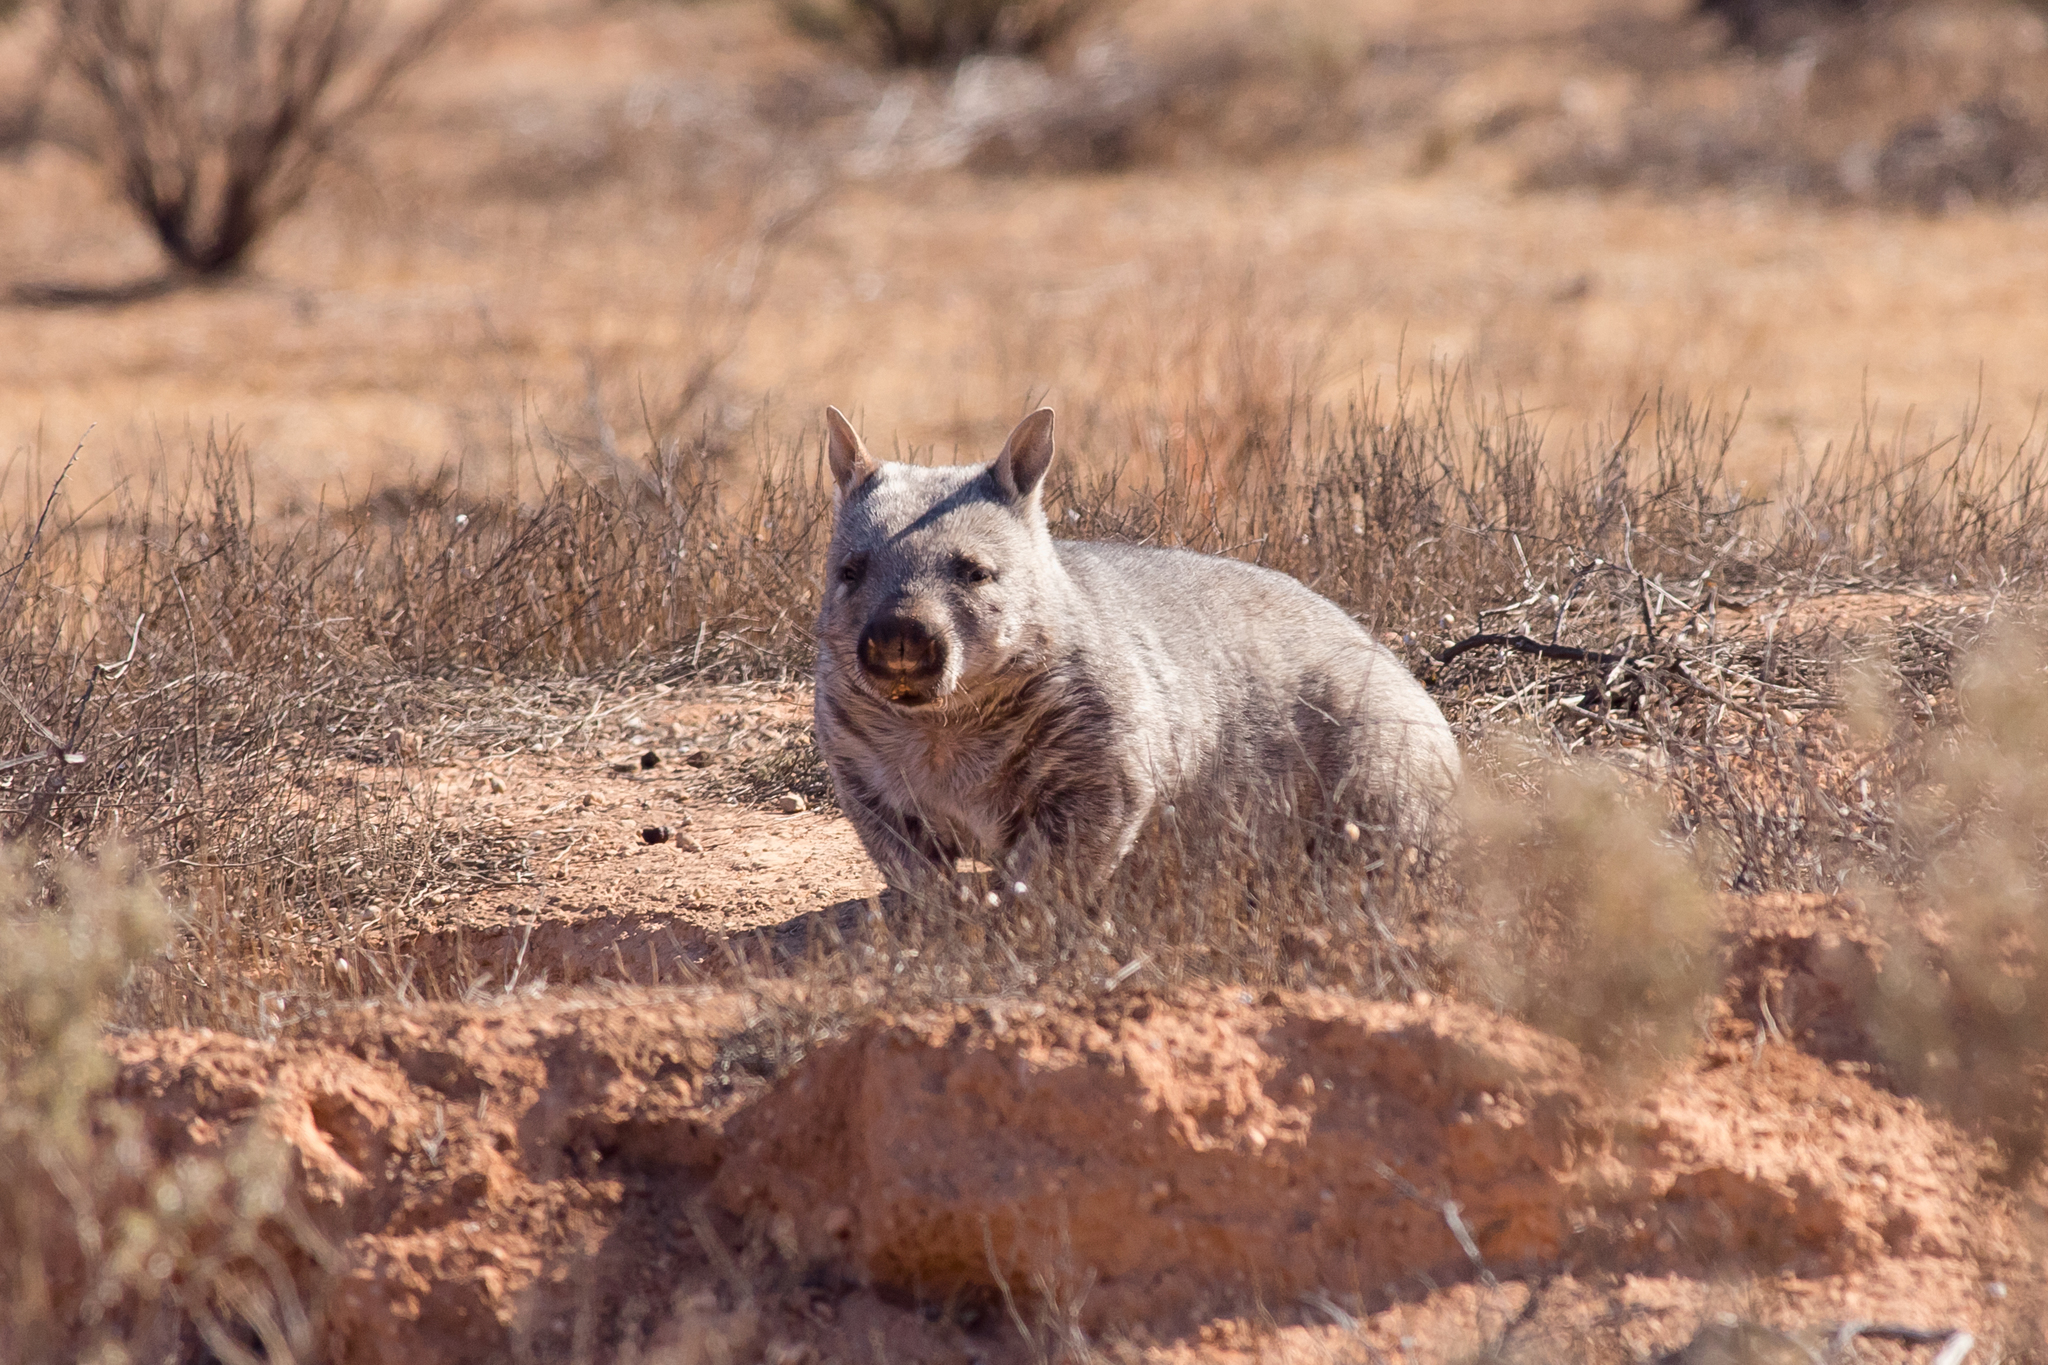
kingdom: Animalia
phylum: Chordata
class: Mammalia
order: Diprotodontia
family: Vombatidae
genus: Lasiorhinus
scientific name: Lasiorhinus latifrons
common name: Southern hairy-nosed wombat
